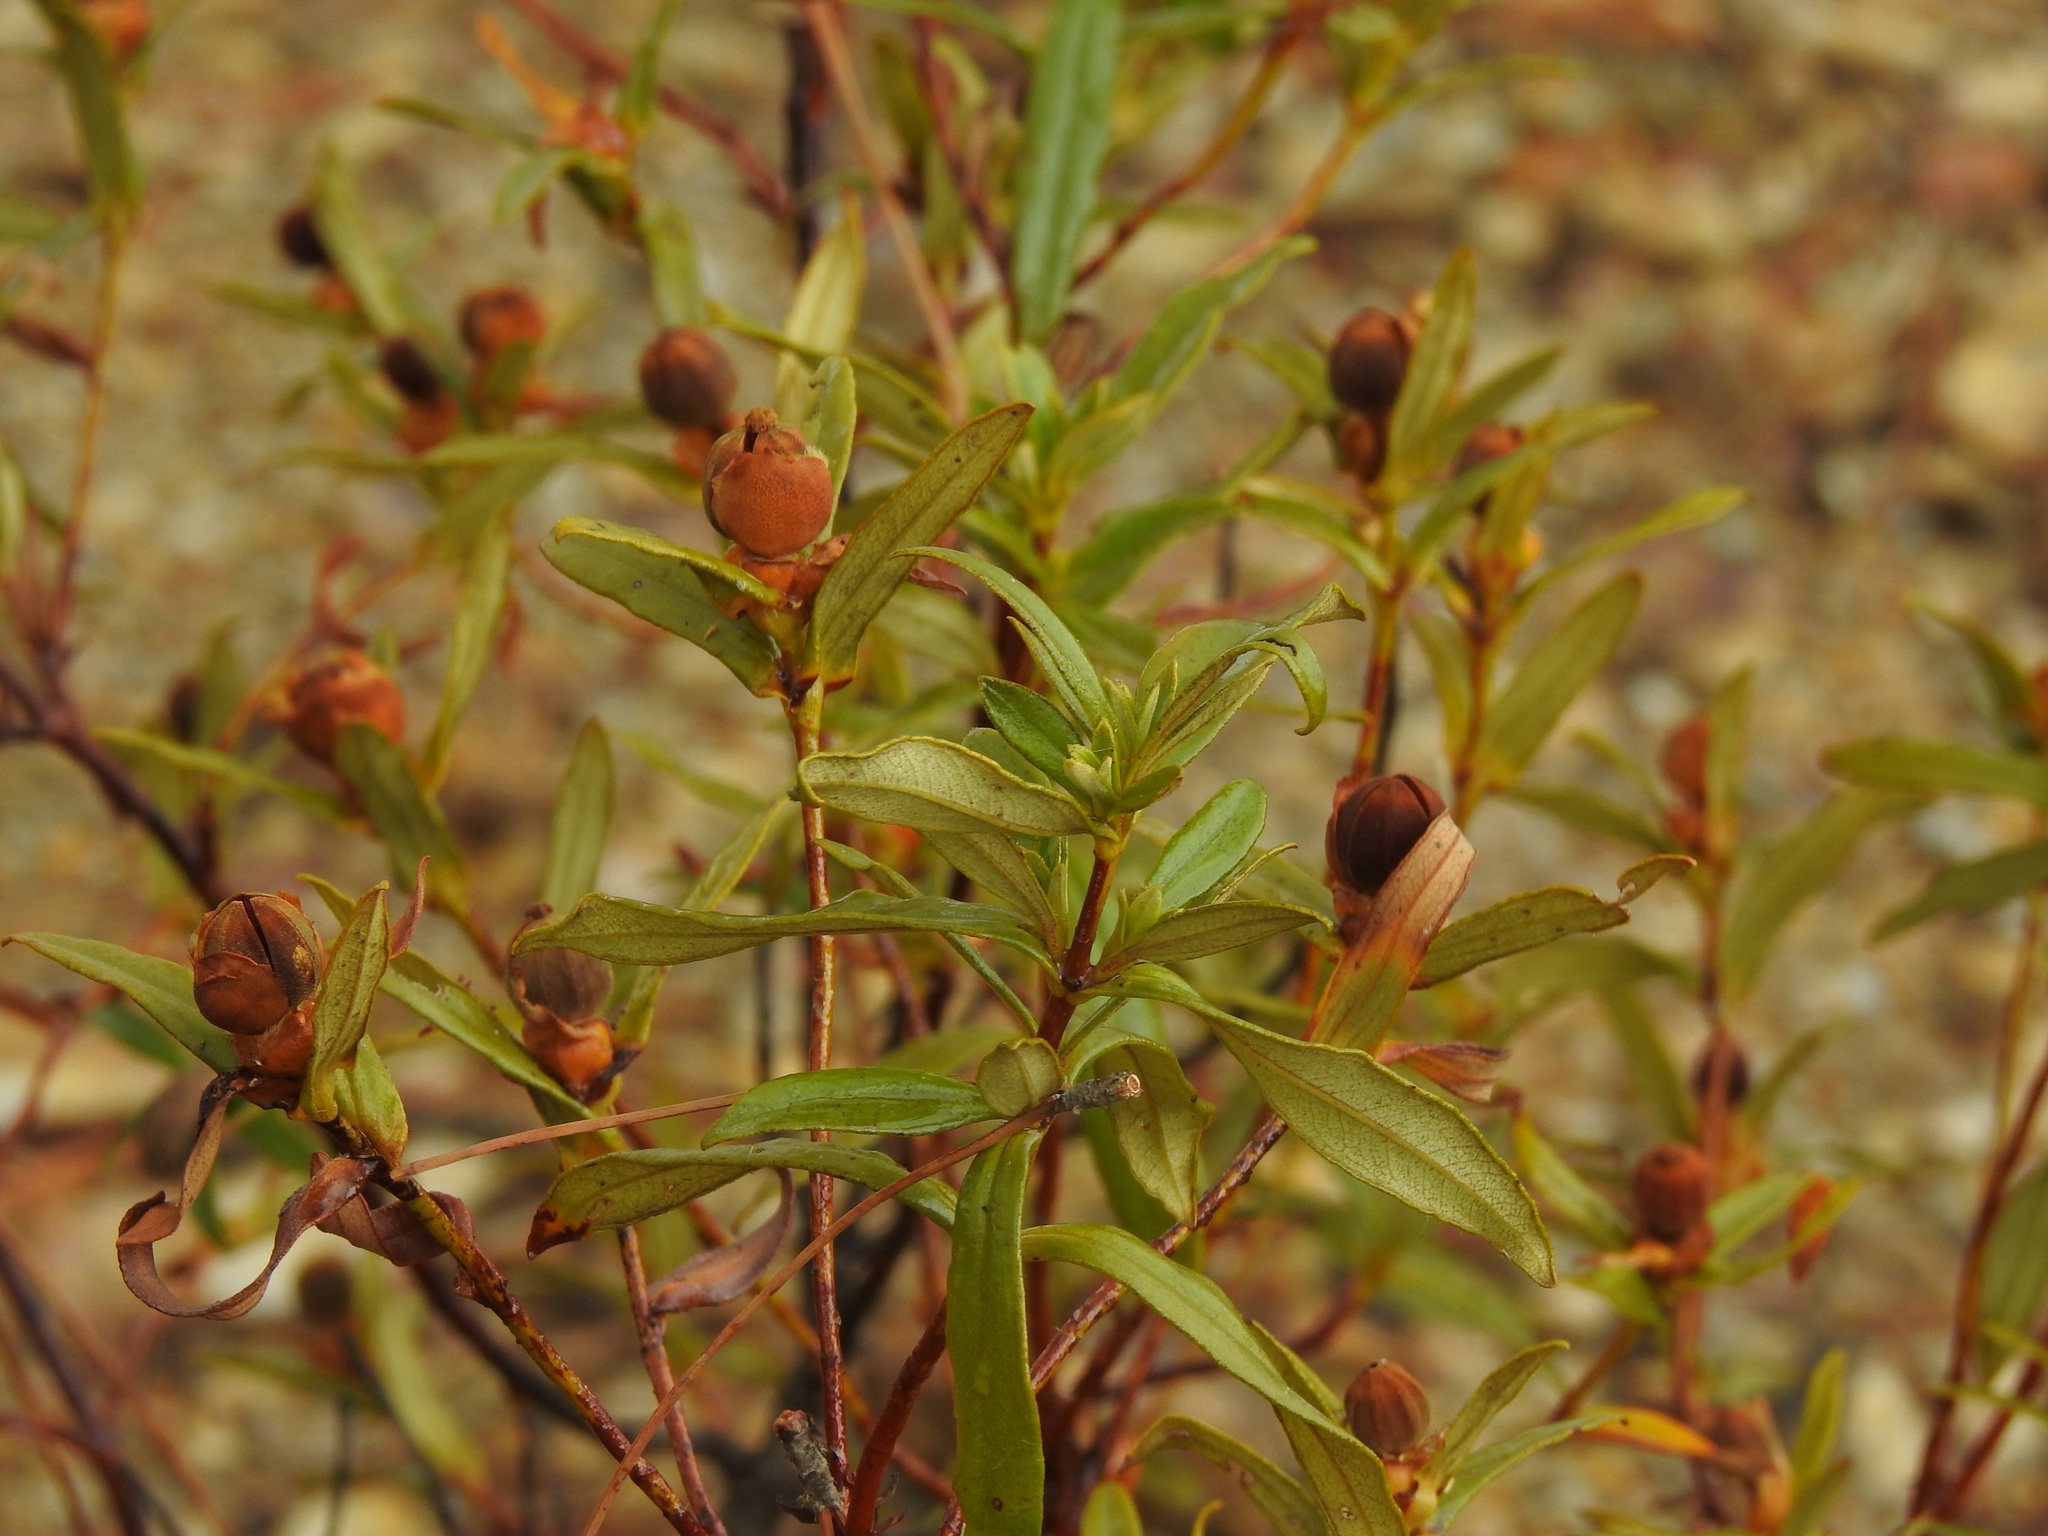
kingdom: Plantae
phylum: Tracheophyta
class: Magnoliopsida
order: Malvales
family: Cistaceae
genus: Cistus
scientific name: Cistus ladanifer
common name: Common gum cistus
